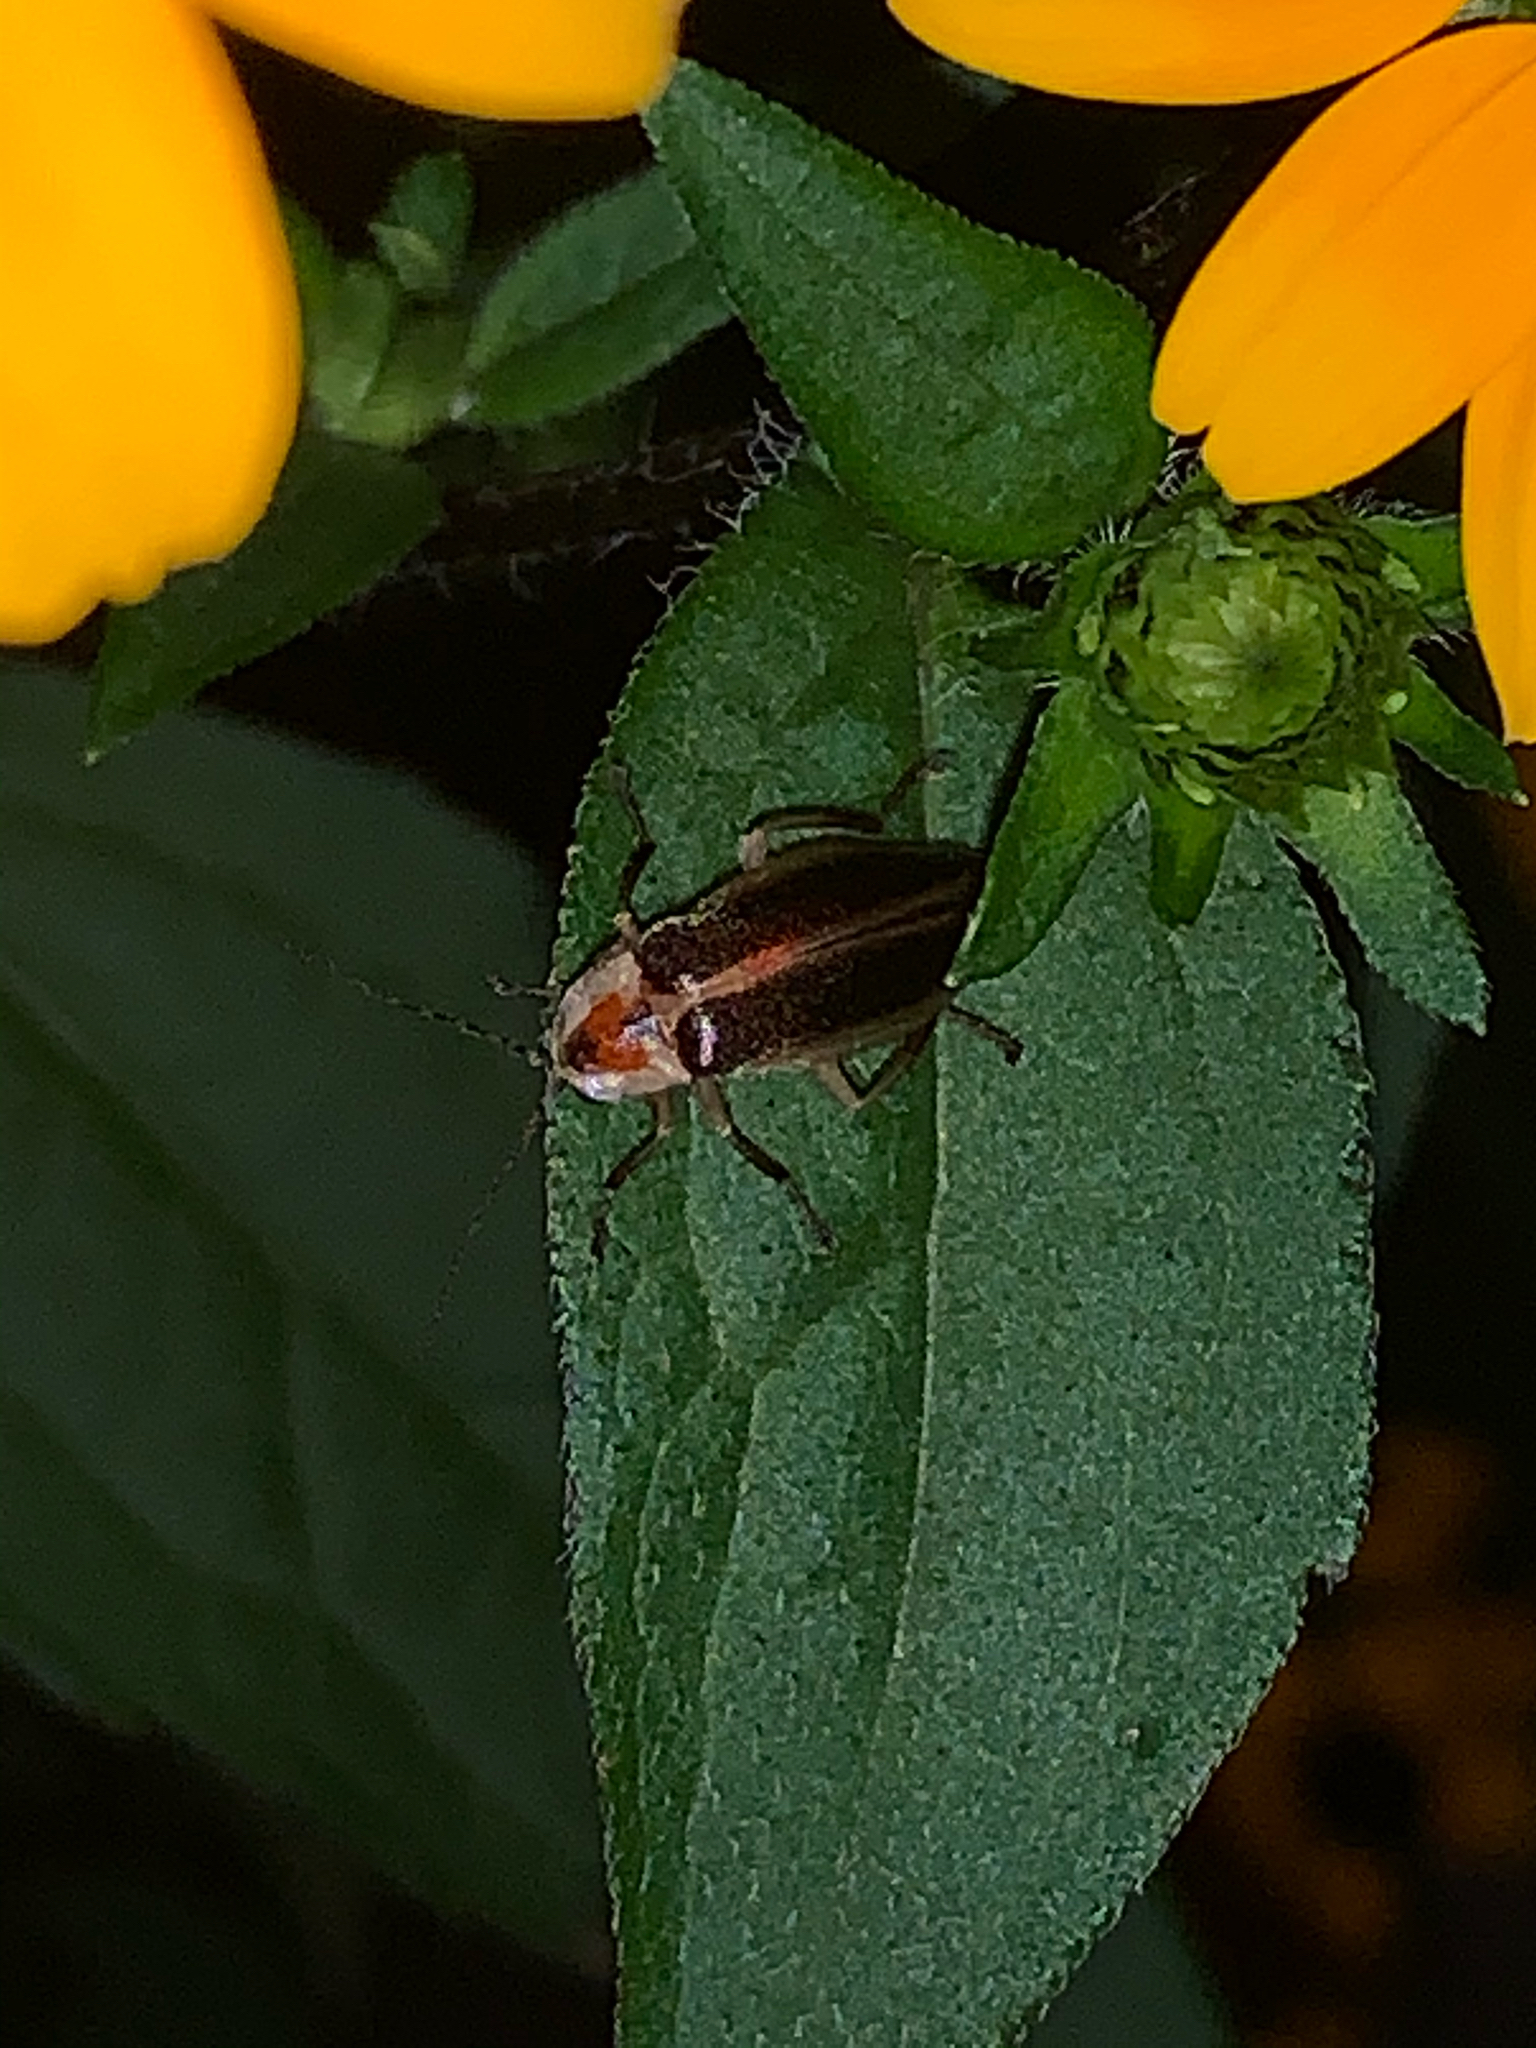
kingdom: Animalia
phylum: Arthropoda
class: Insecta
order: Coleoptera
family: Lampyridae
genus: Photuris
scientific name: Photuris
